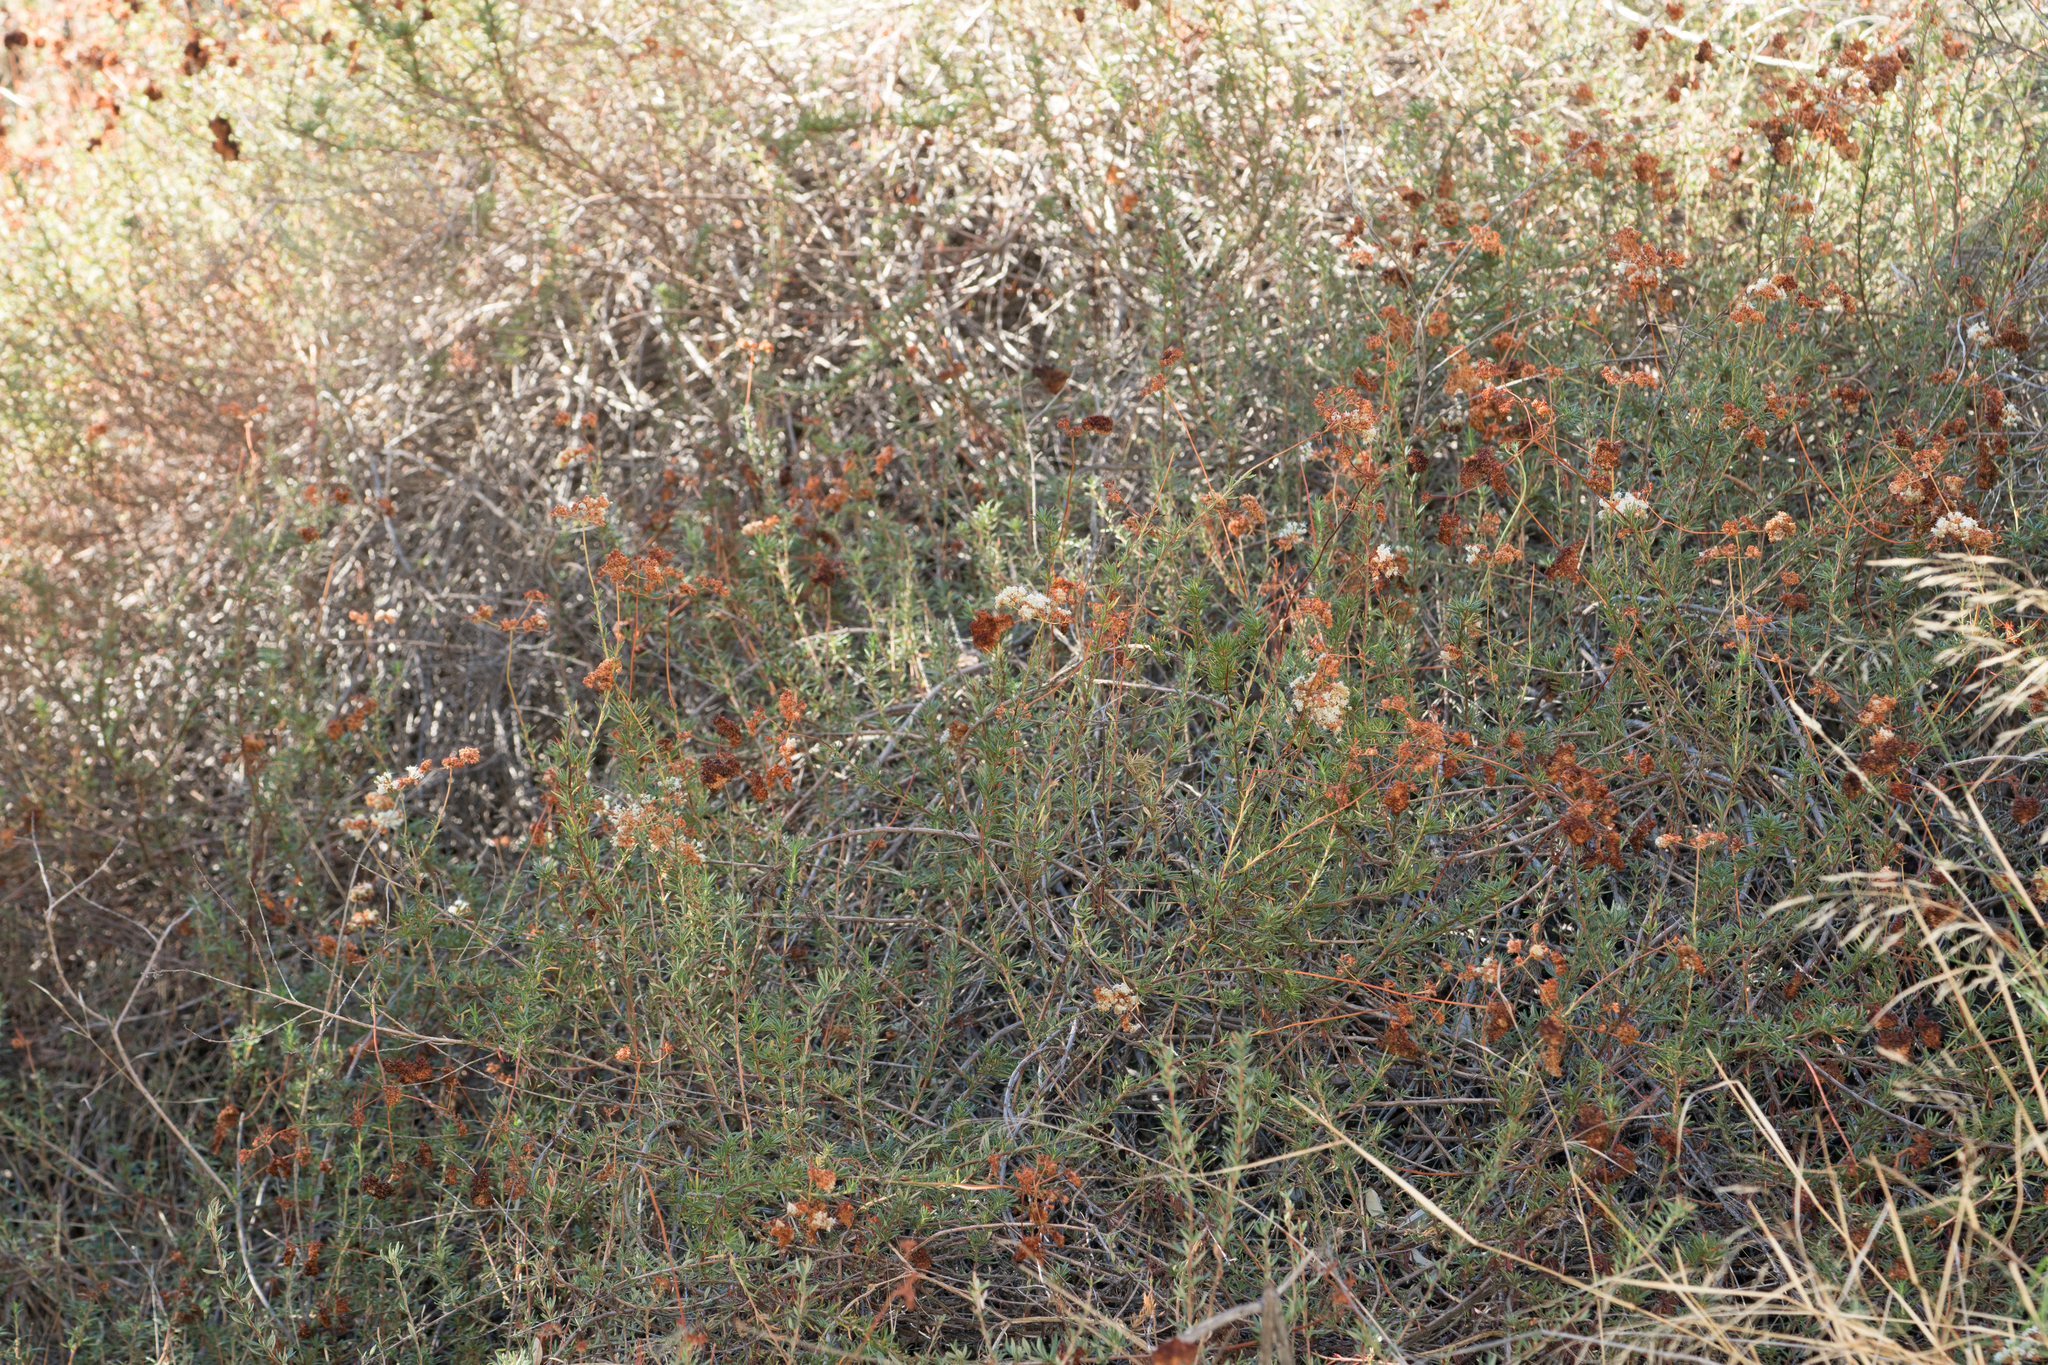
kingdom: Plantae
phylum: Tracheophyta
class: Magnoliopsida
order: Caryophyllales
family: Polygonaceae
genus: Eriogonum
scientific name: Eriogonum fasciculatum
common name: California wild buckwheat
